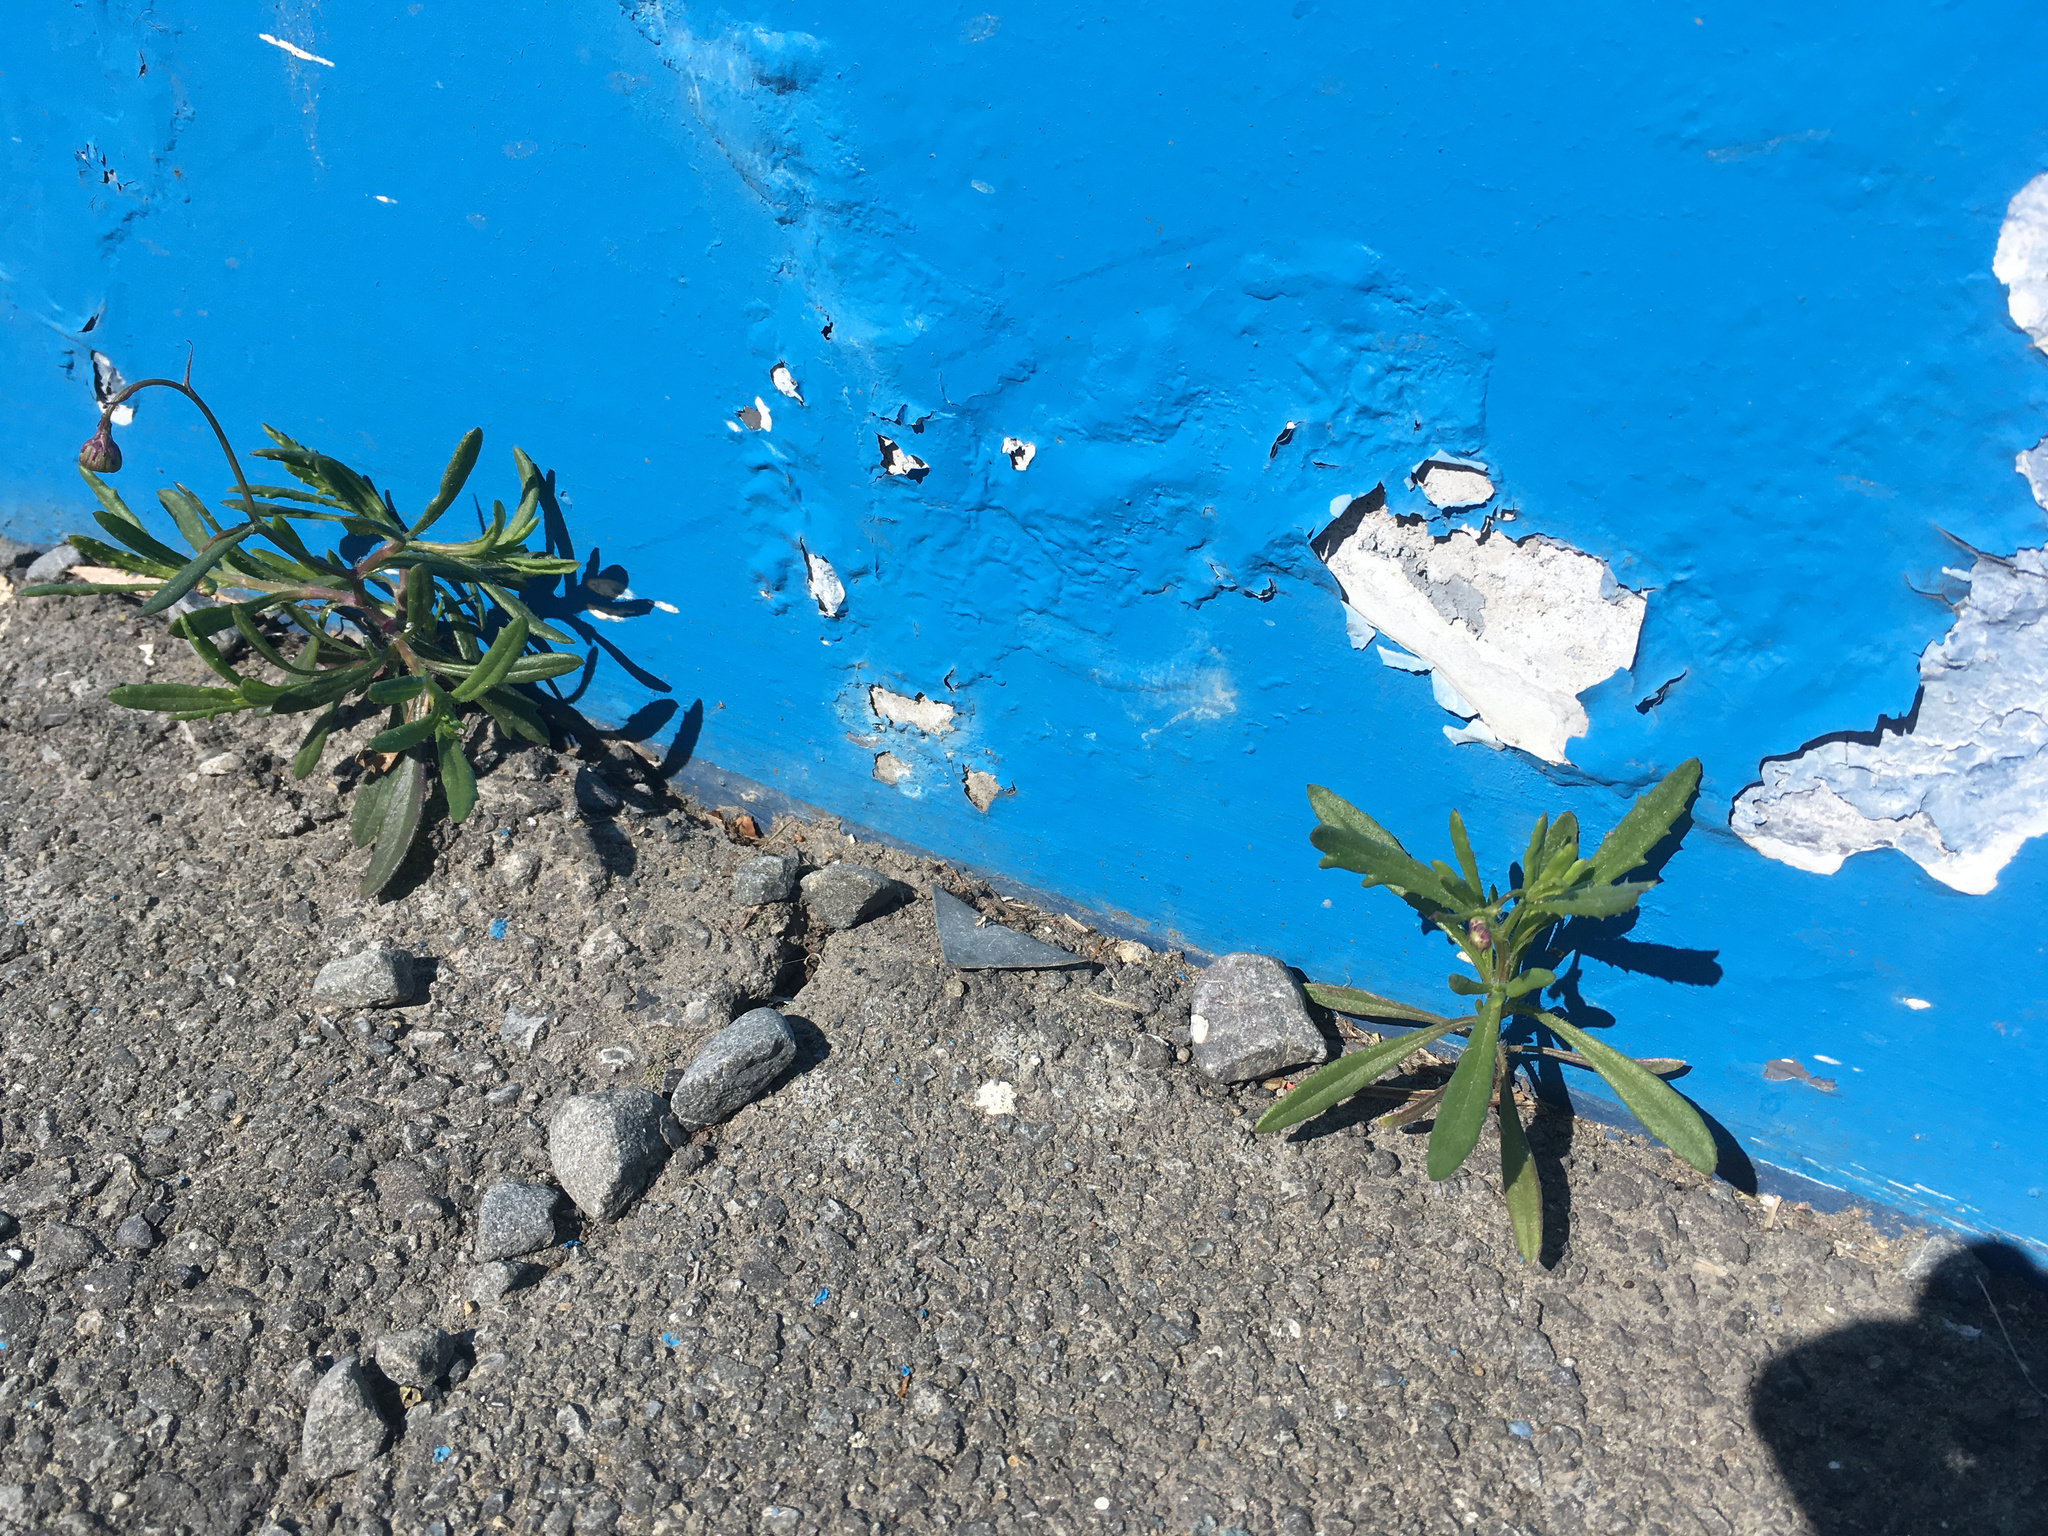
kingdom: Plantae
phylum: Tracheophyta
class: Magnoliopsida
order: Asterales
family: Asteraceae
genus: Senecio
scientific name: Senecio skirrhodon
